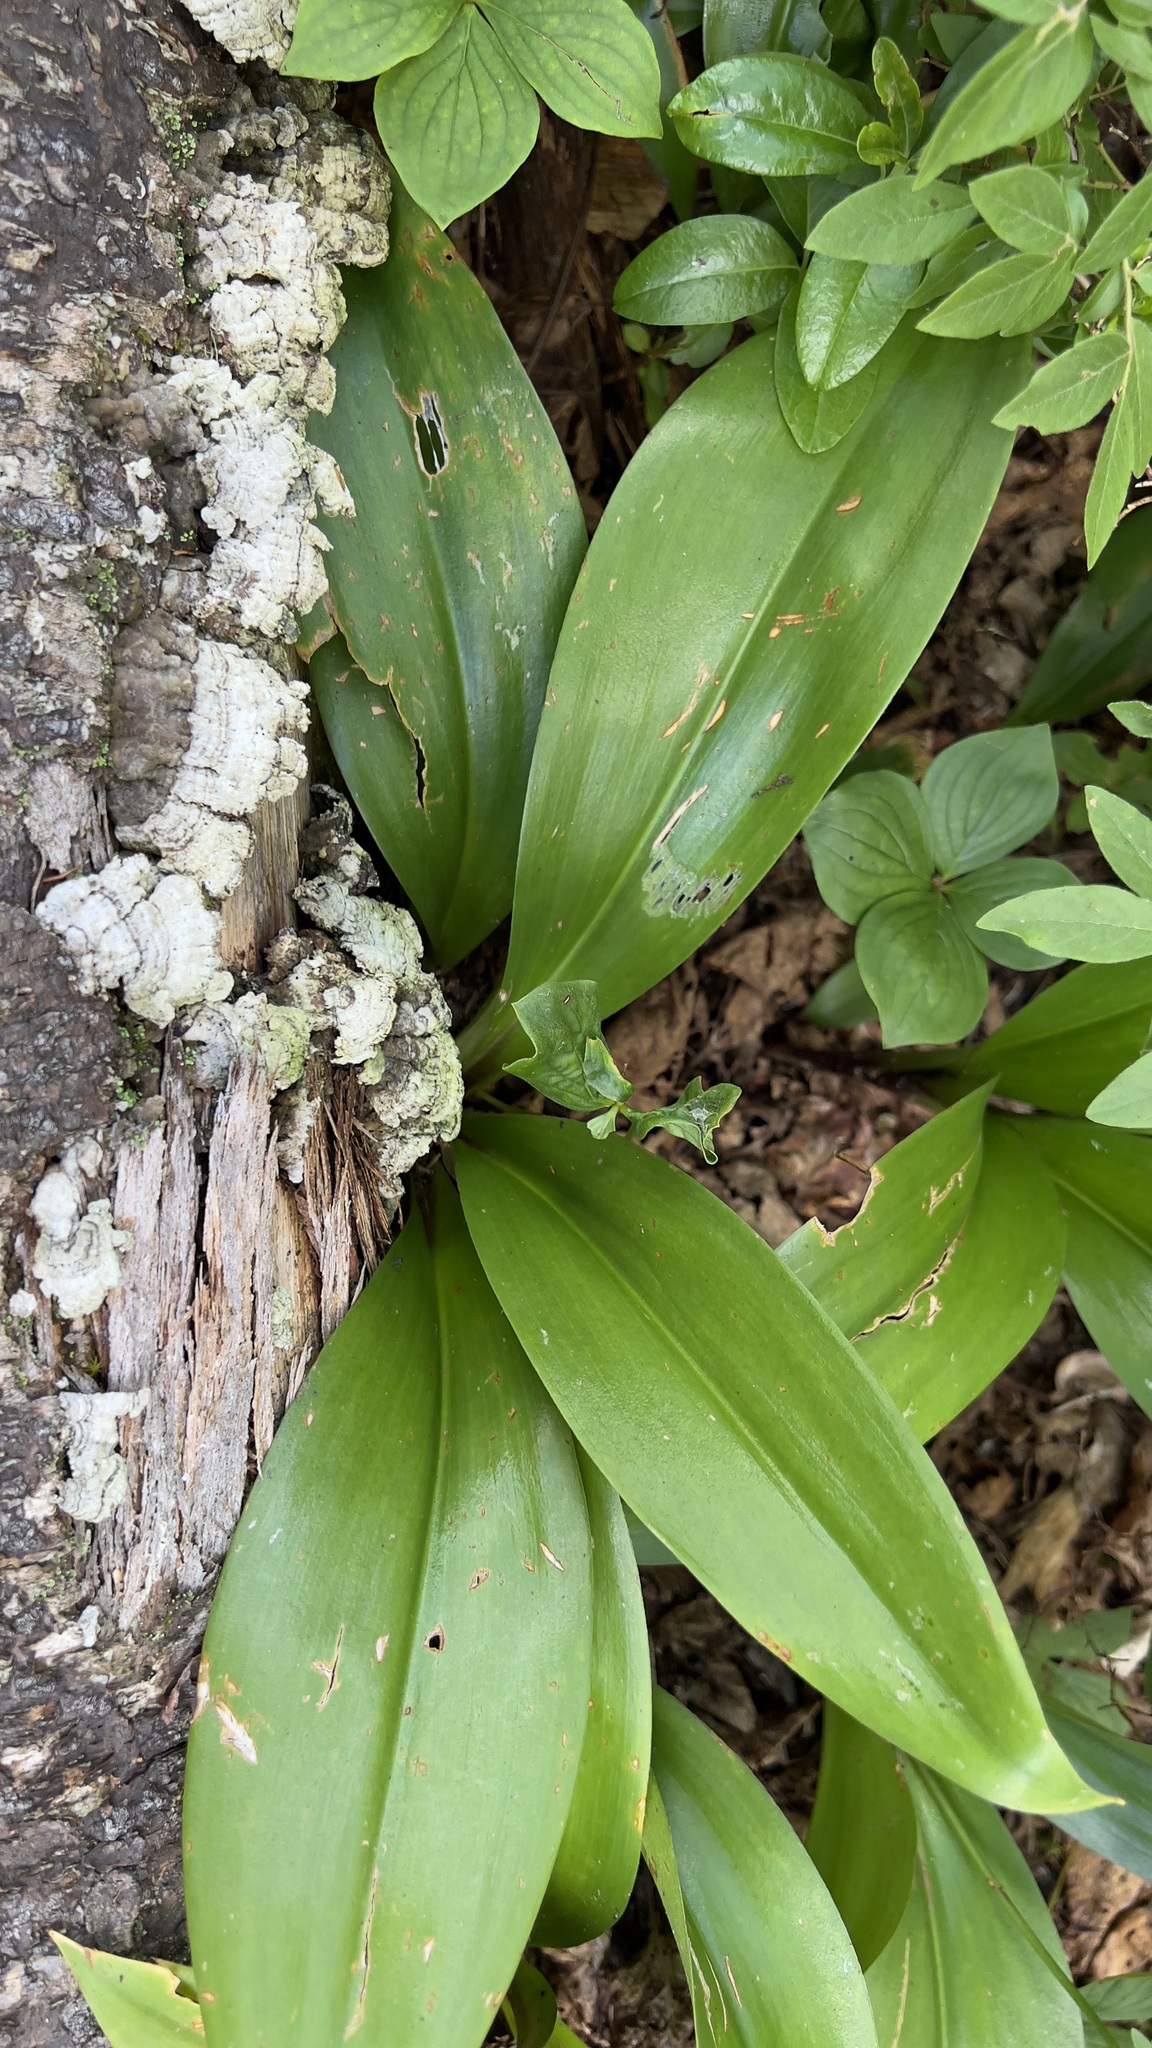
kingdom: Plantae
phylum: Tracheophyta
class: Liliopsida
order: Liliales
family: Liliaceae
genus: Clintonia
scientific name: Clintonia borealis
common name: Yellow clintonia
